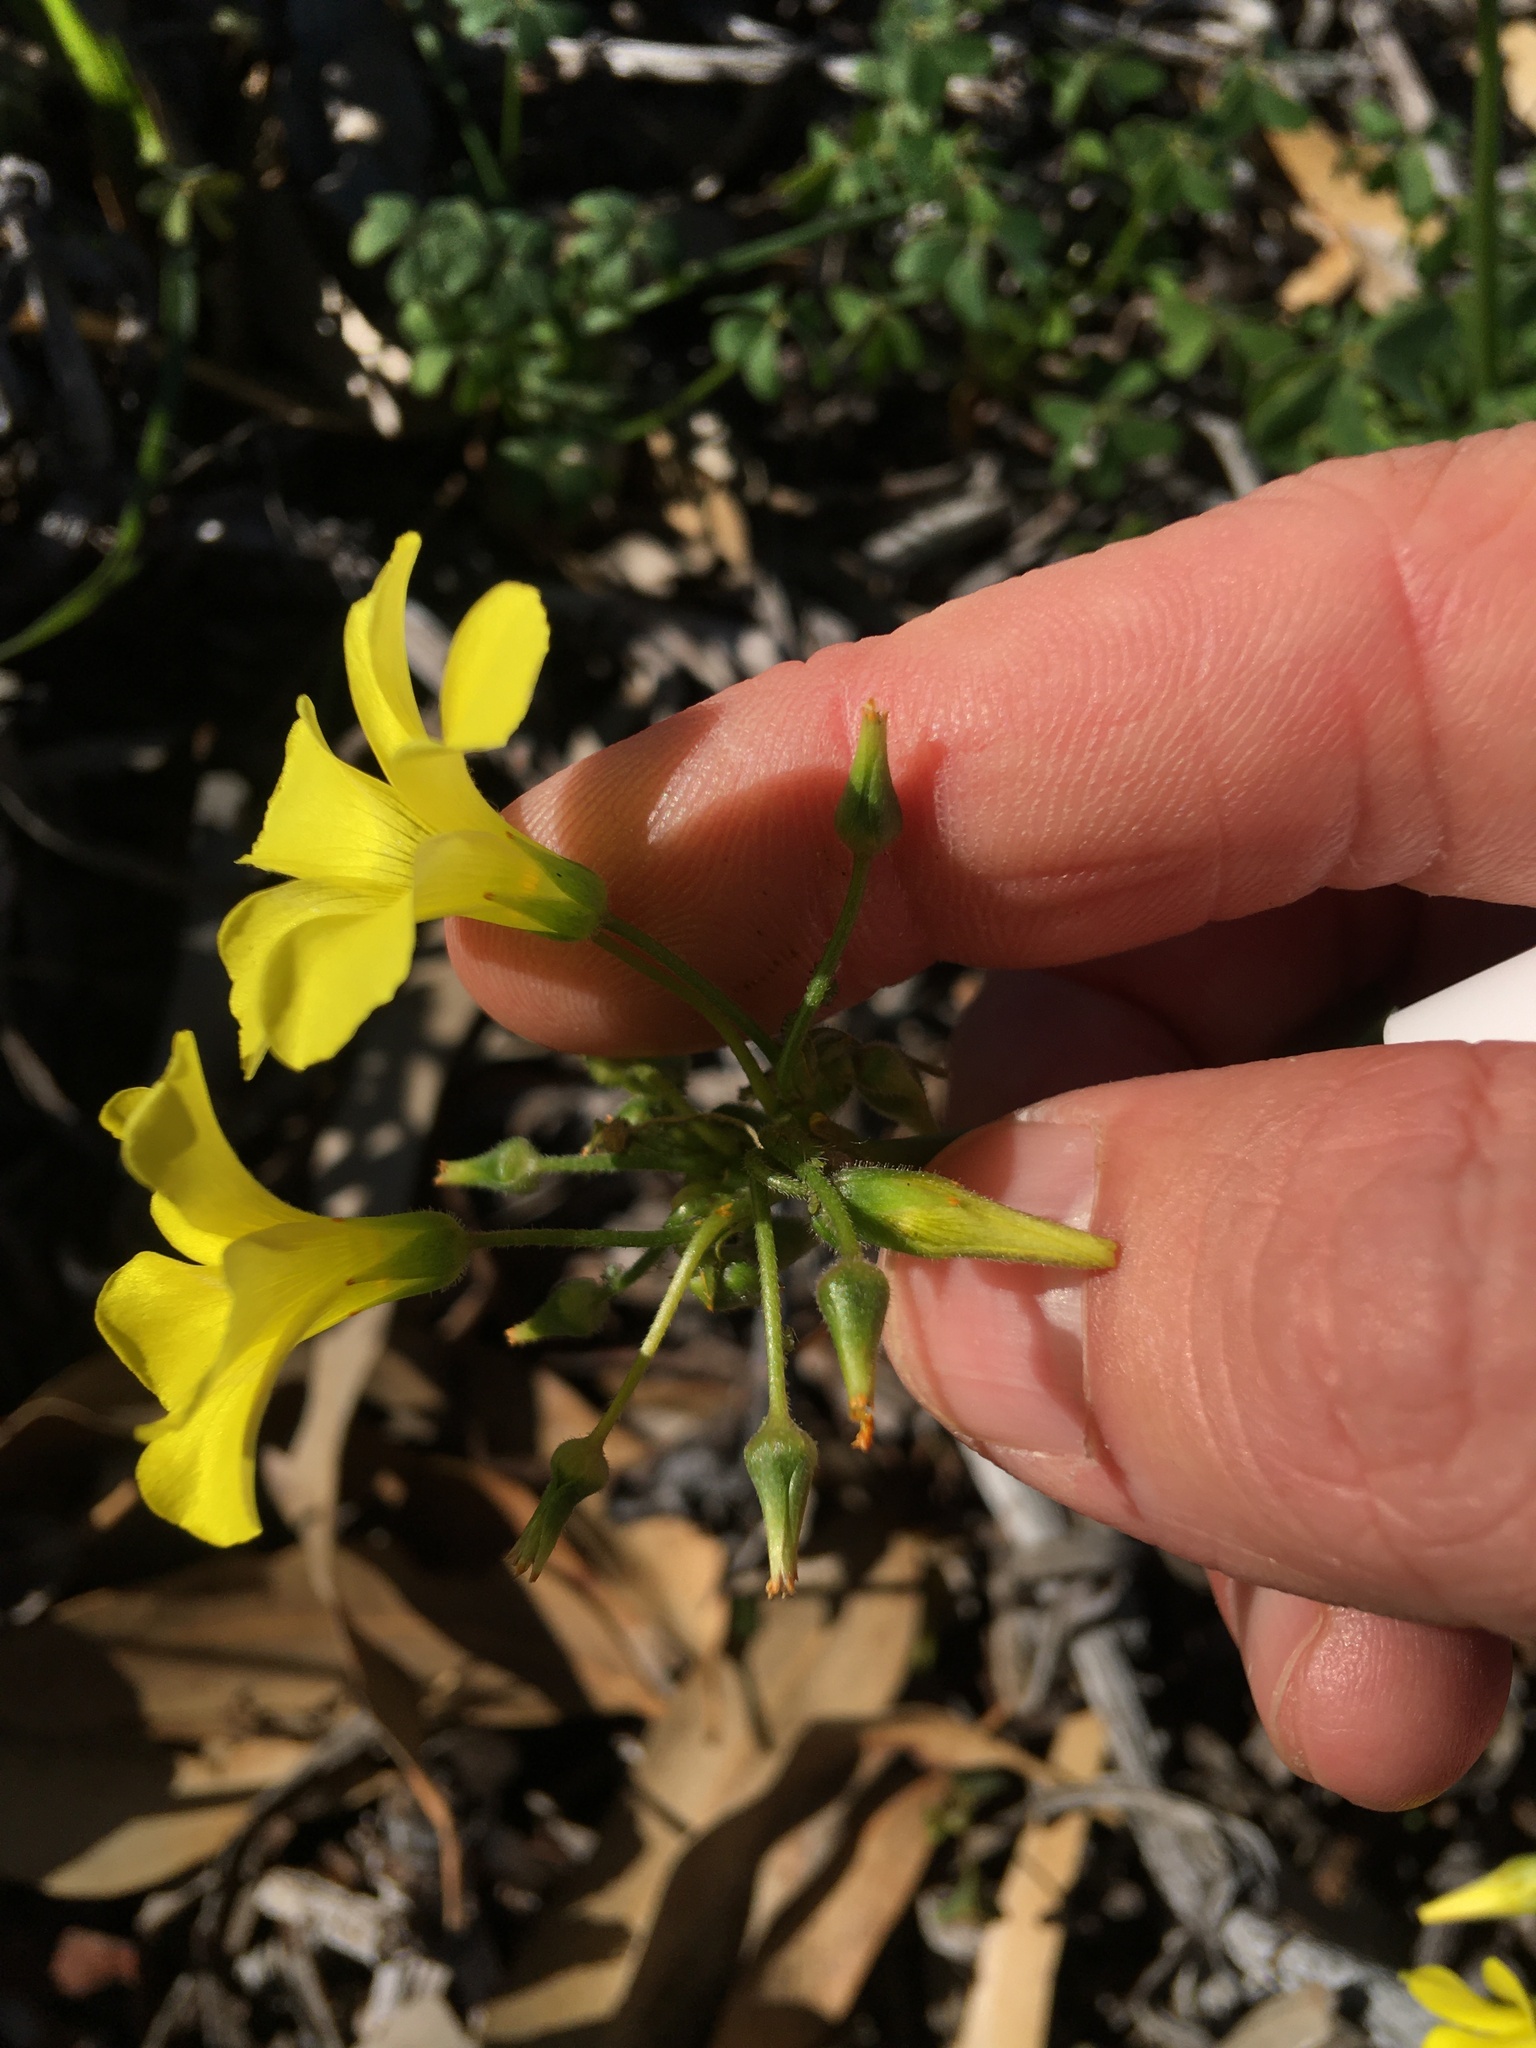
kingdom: Plantae
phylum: Tracheophyta
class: Magnoliopsida
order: Oxalidales
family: Oxalidaceae
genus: Oxalis
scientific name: Oxalis pes-caprae
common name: Bermuda-buttercup
